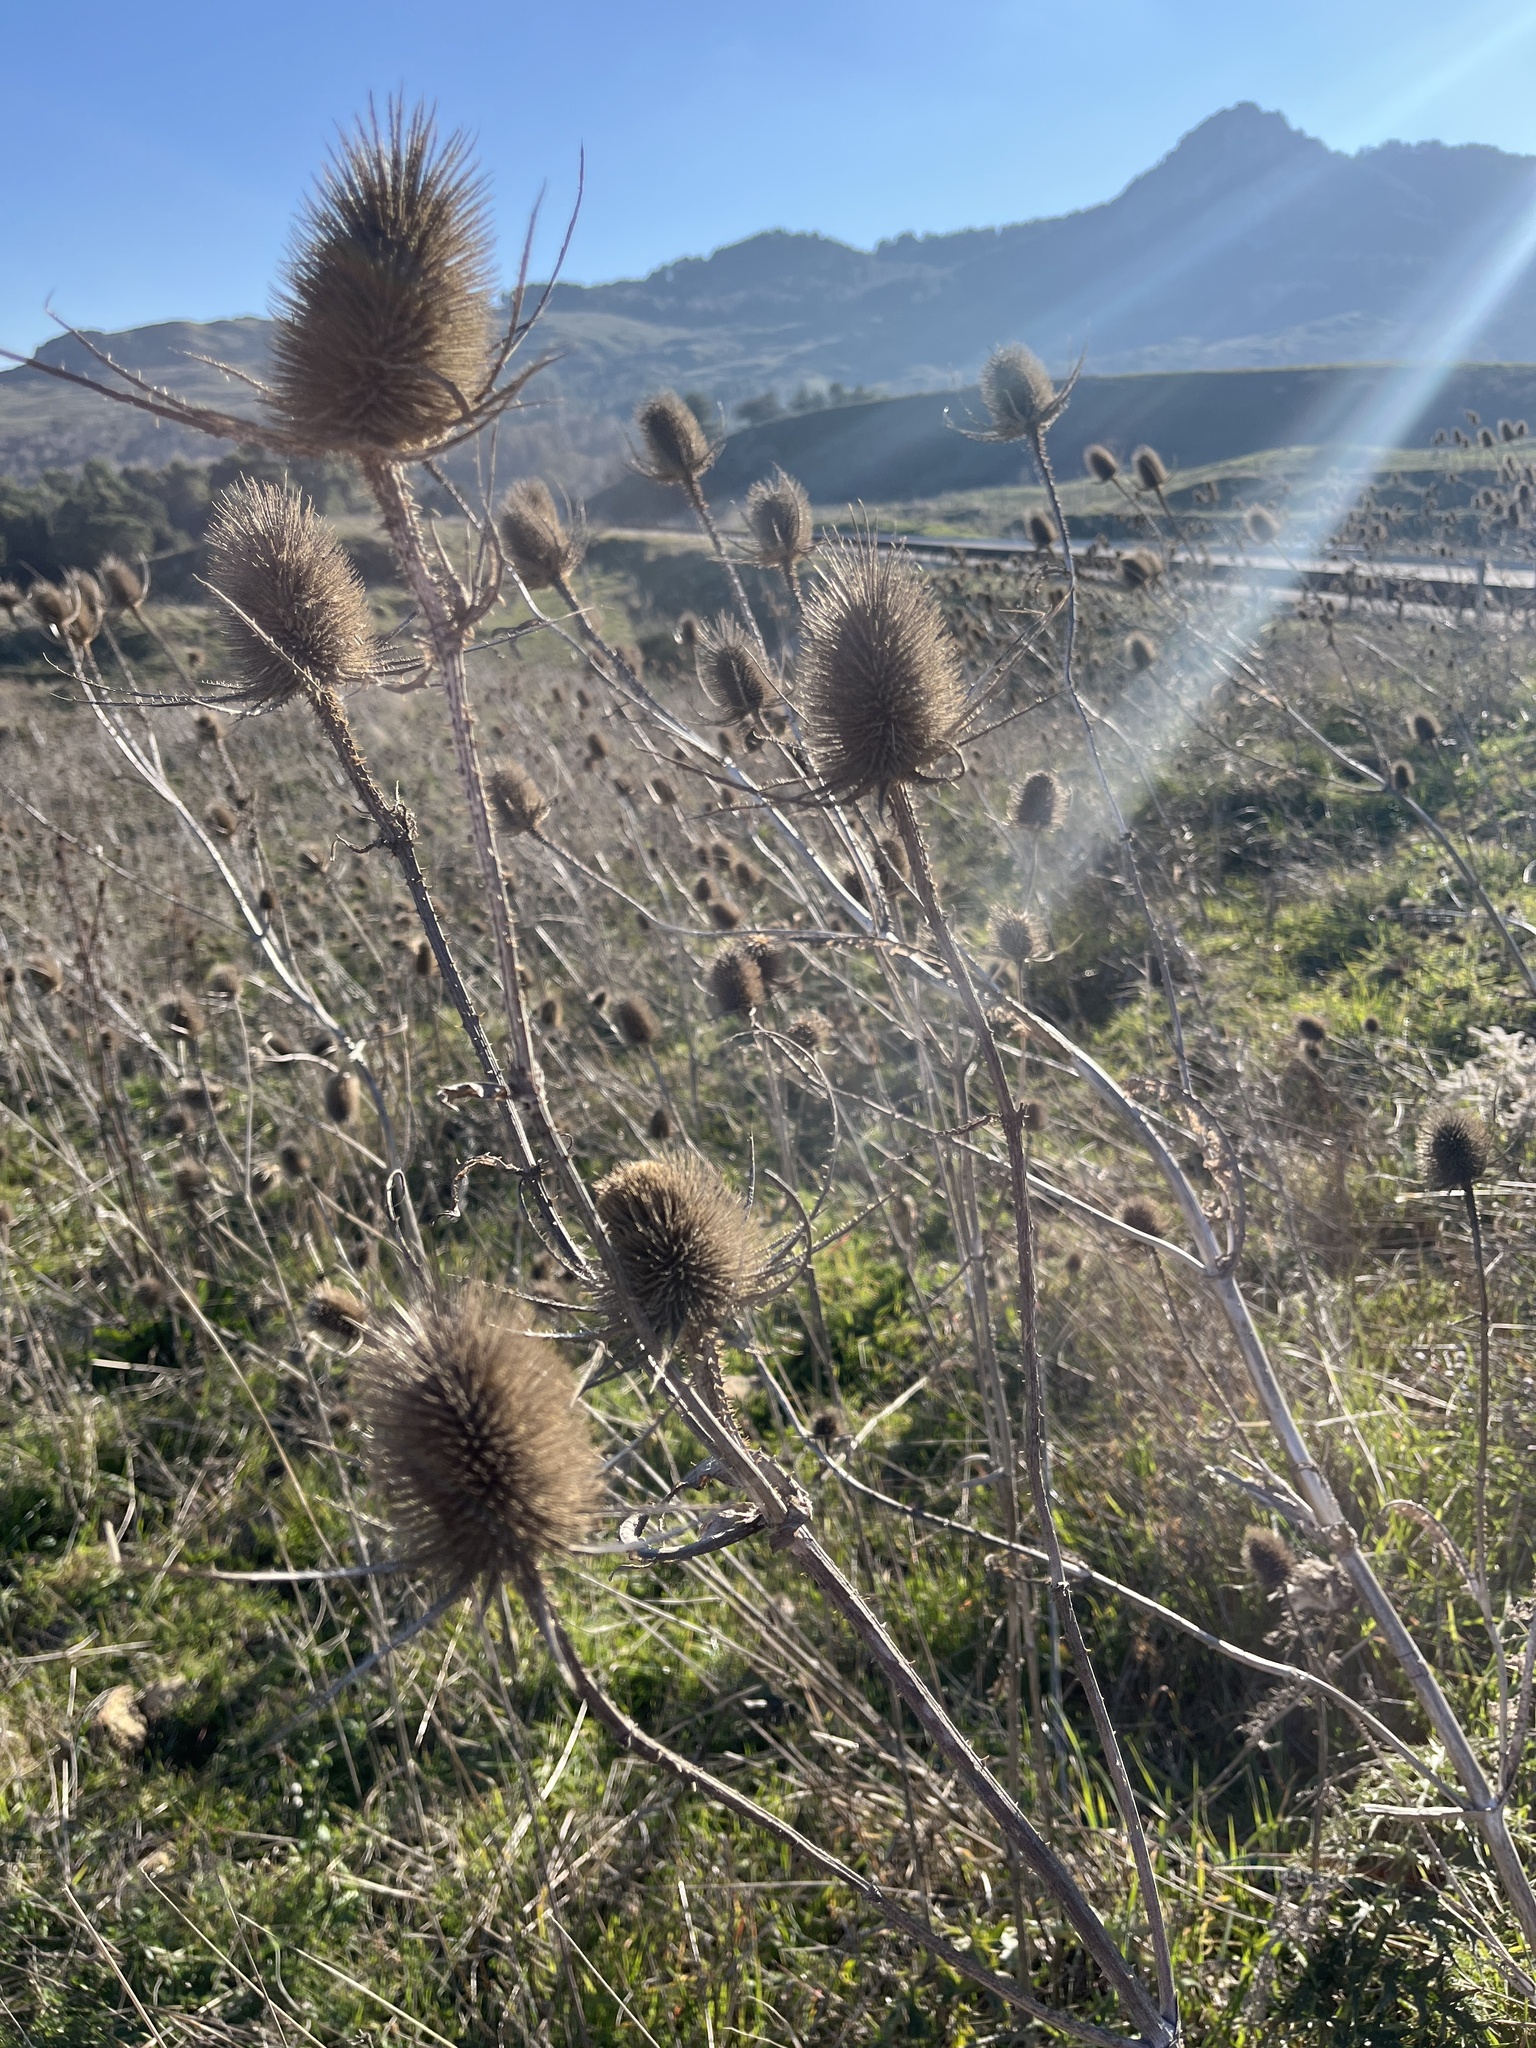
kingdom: Plantae
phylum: Tracheophyta
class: Magnoliopsida
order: Dipsacales
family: Caprifoliaceae
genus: Dipsacus
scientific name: Dipsacus fullonum
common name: Teasel
